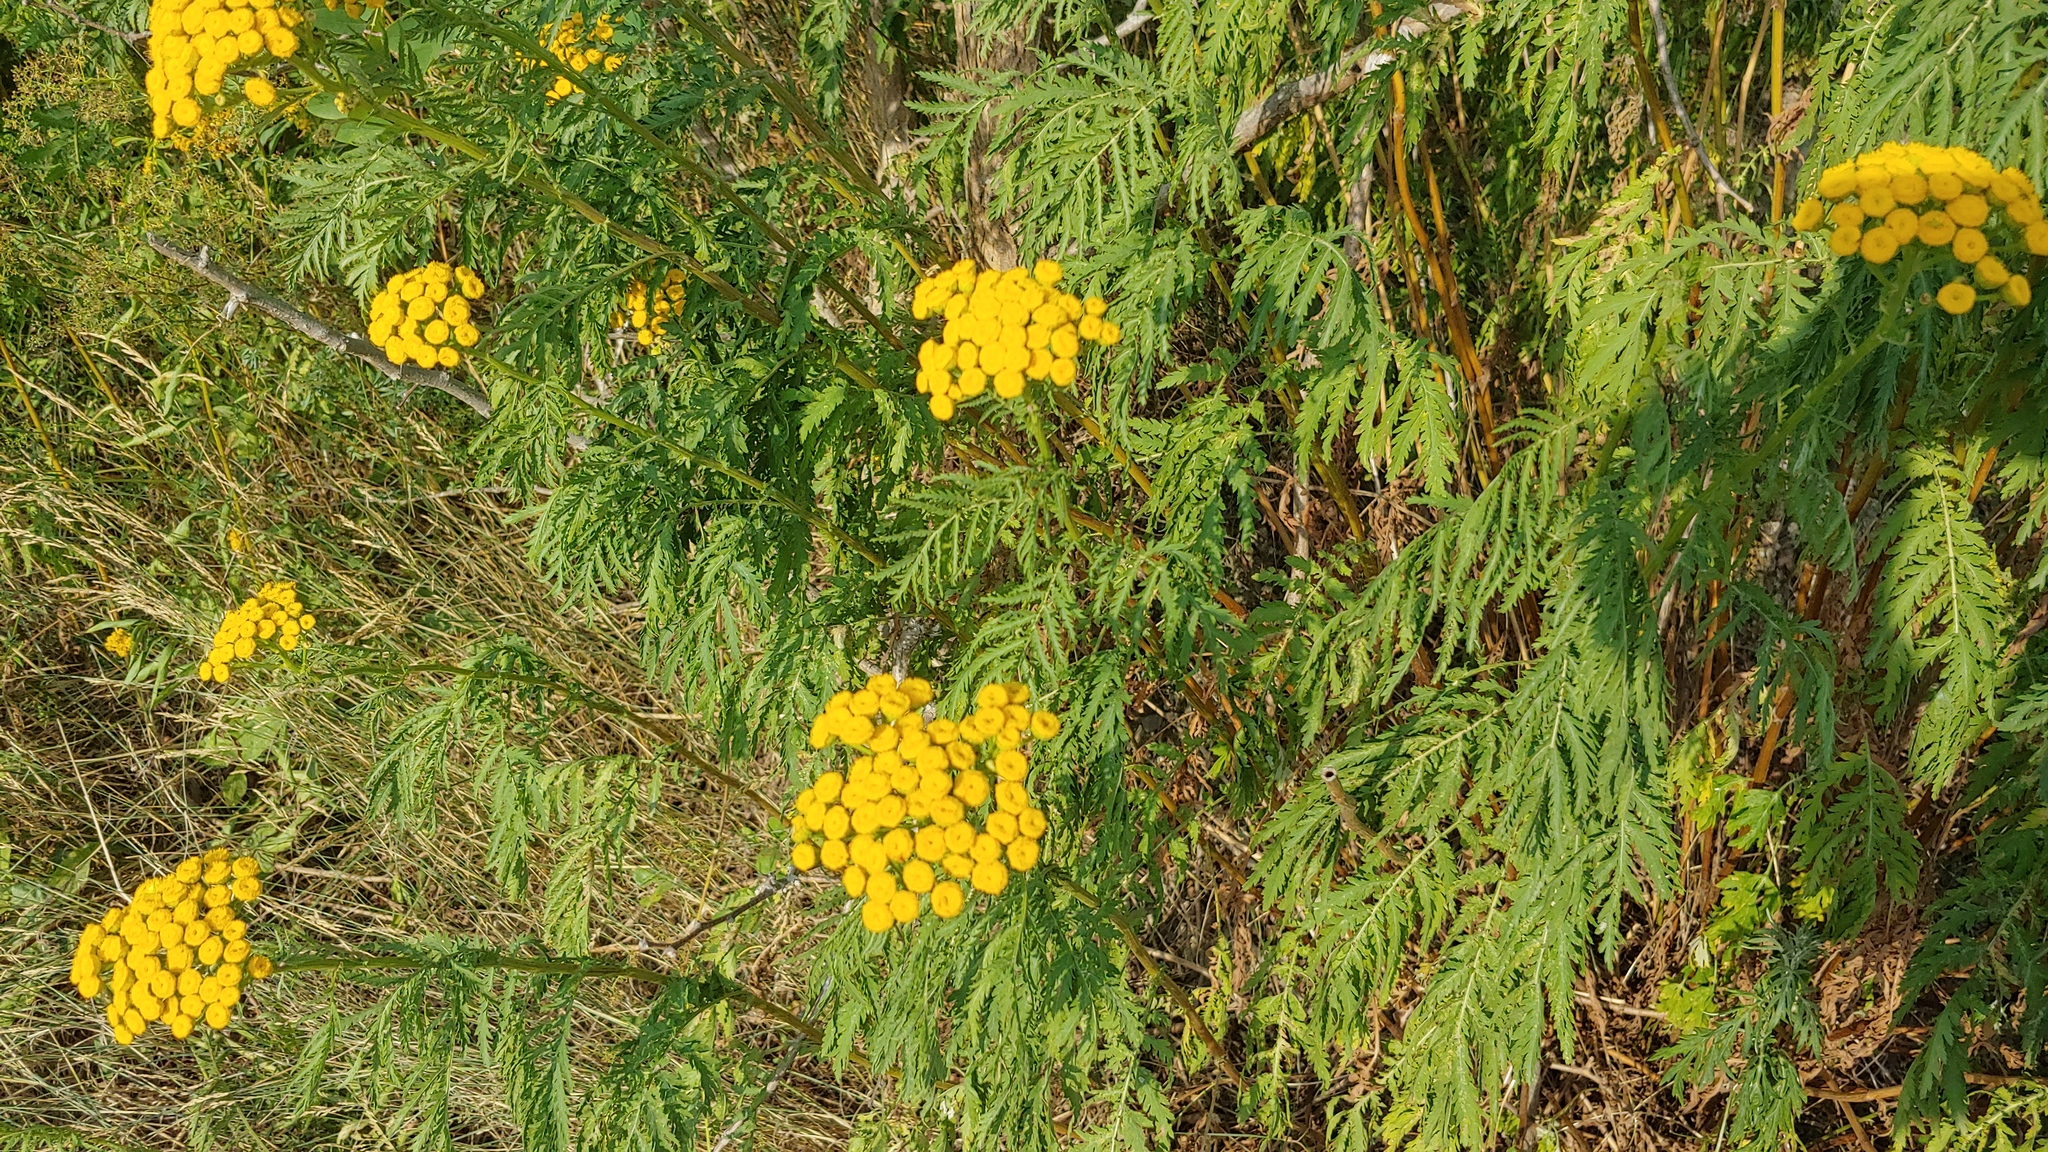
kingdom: Plantae
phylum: Tracheophyta
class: Magnoliopsida
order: Asterales
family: Asteraceae
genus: Tanacetum
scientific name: Tanacetum vulgare
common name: Common tansy
